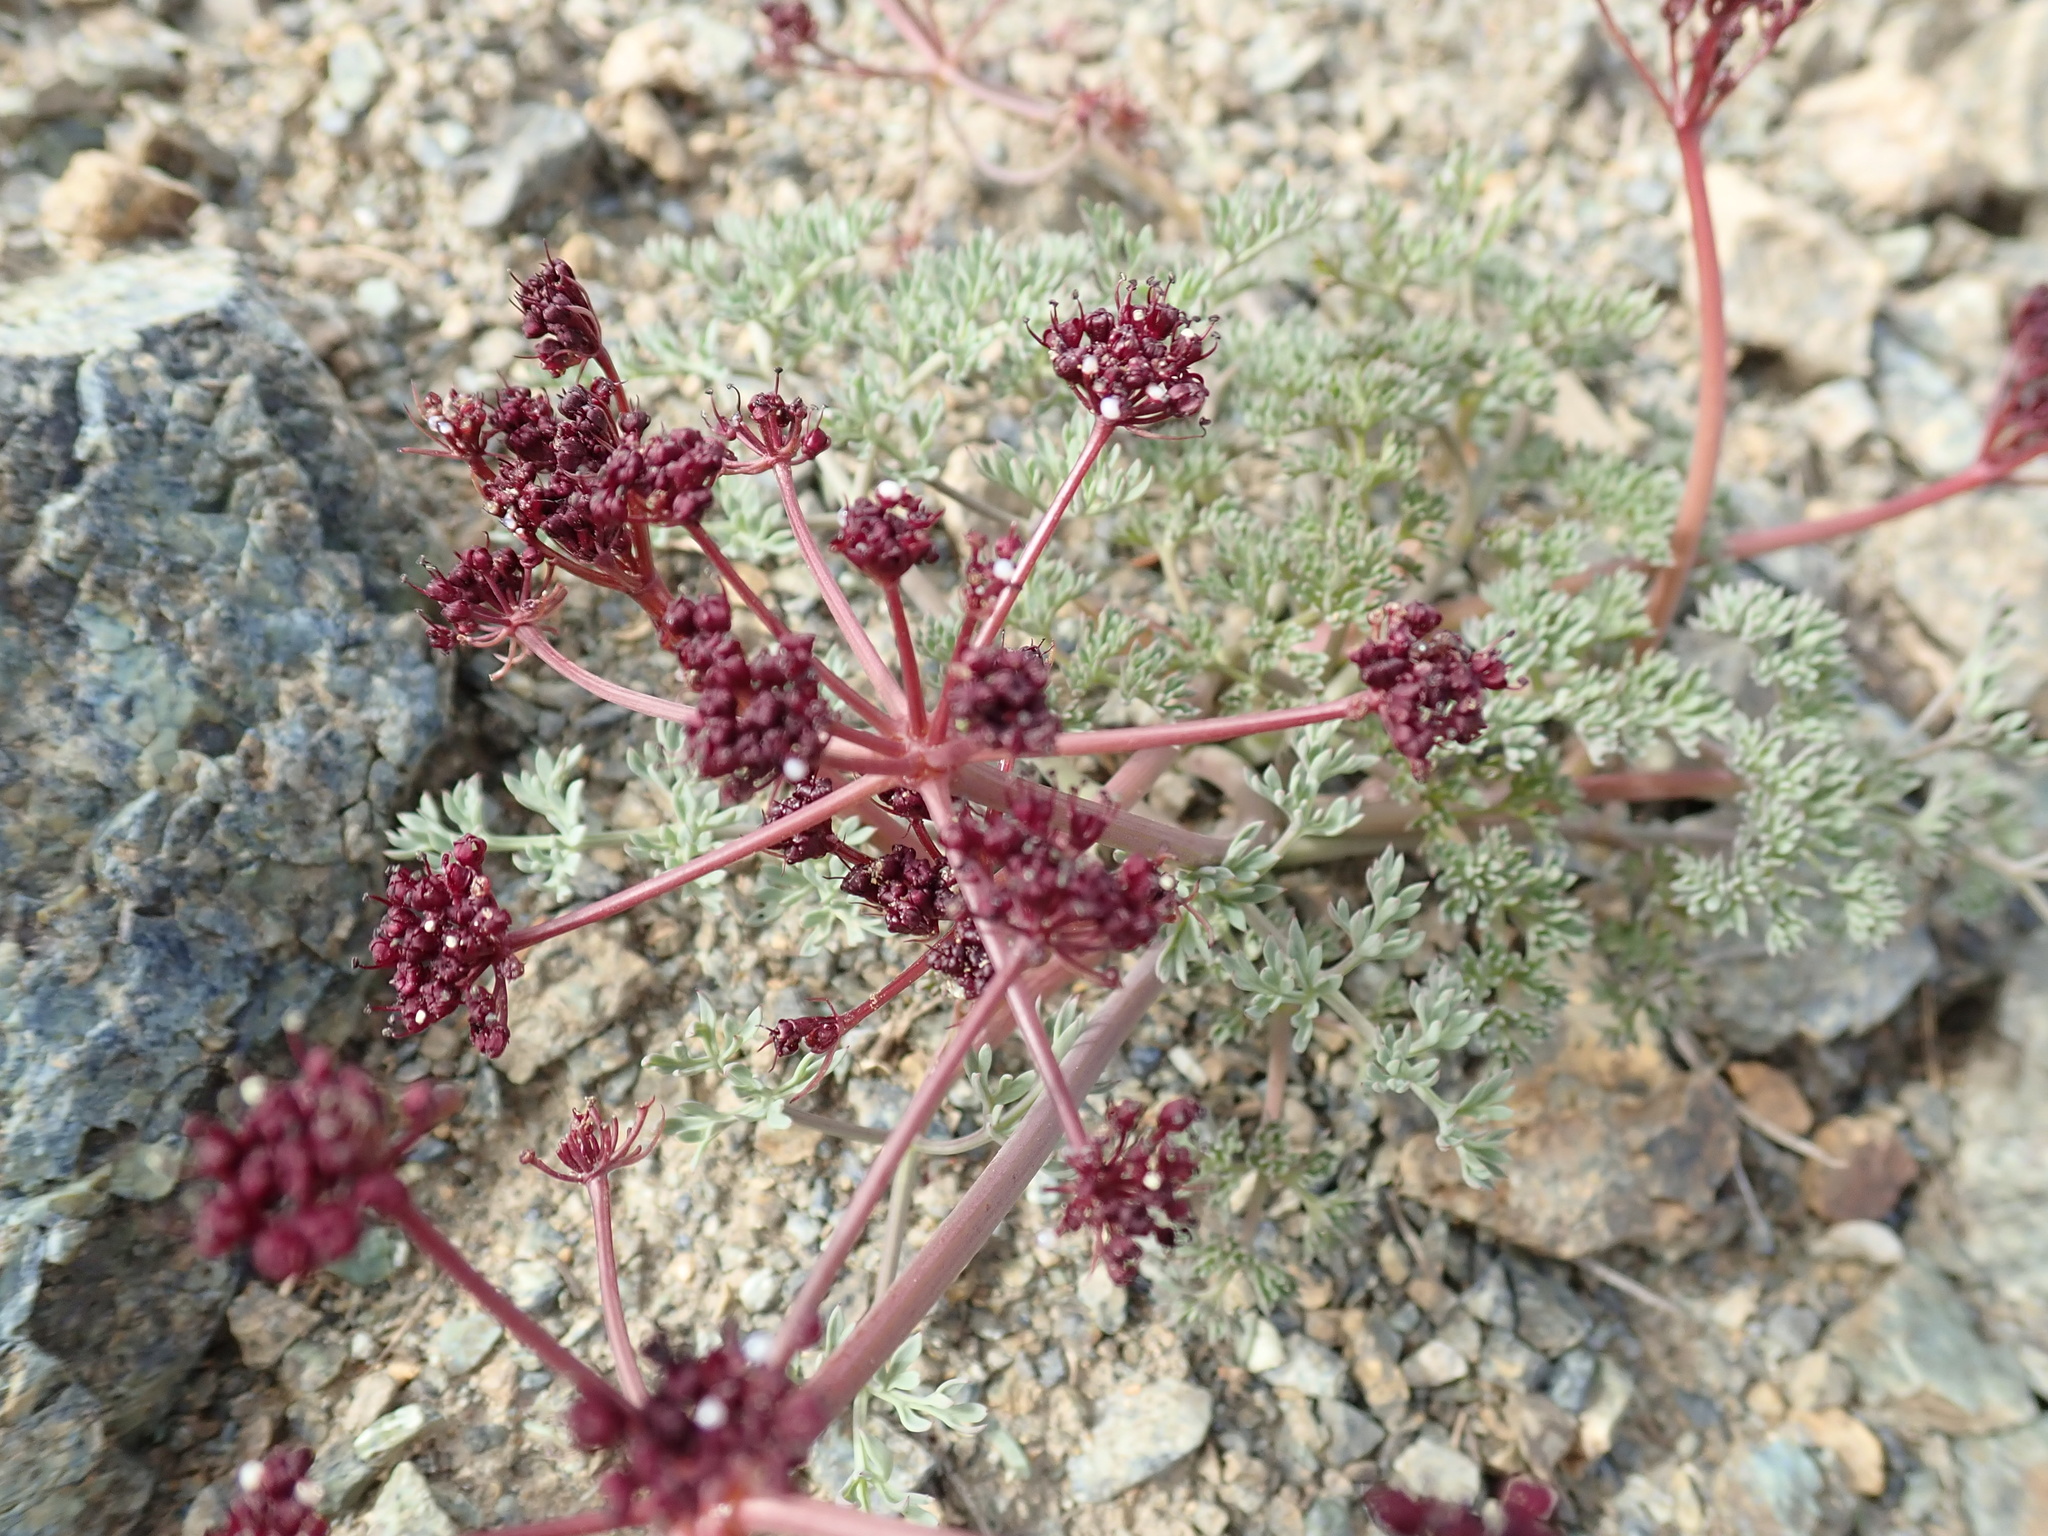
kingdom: Plantae
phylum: Tracheophyta
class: Magnoliopsida
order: Apiales
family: Apiaceae
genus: Lomatium
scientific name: Lomatium cuspidatum
